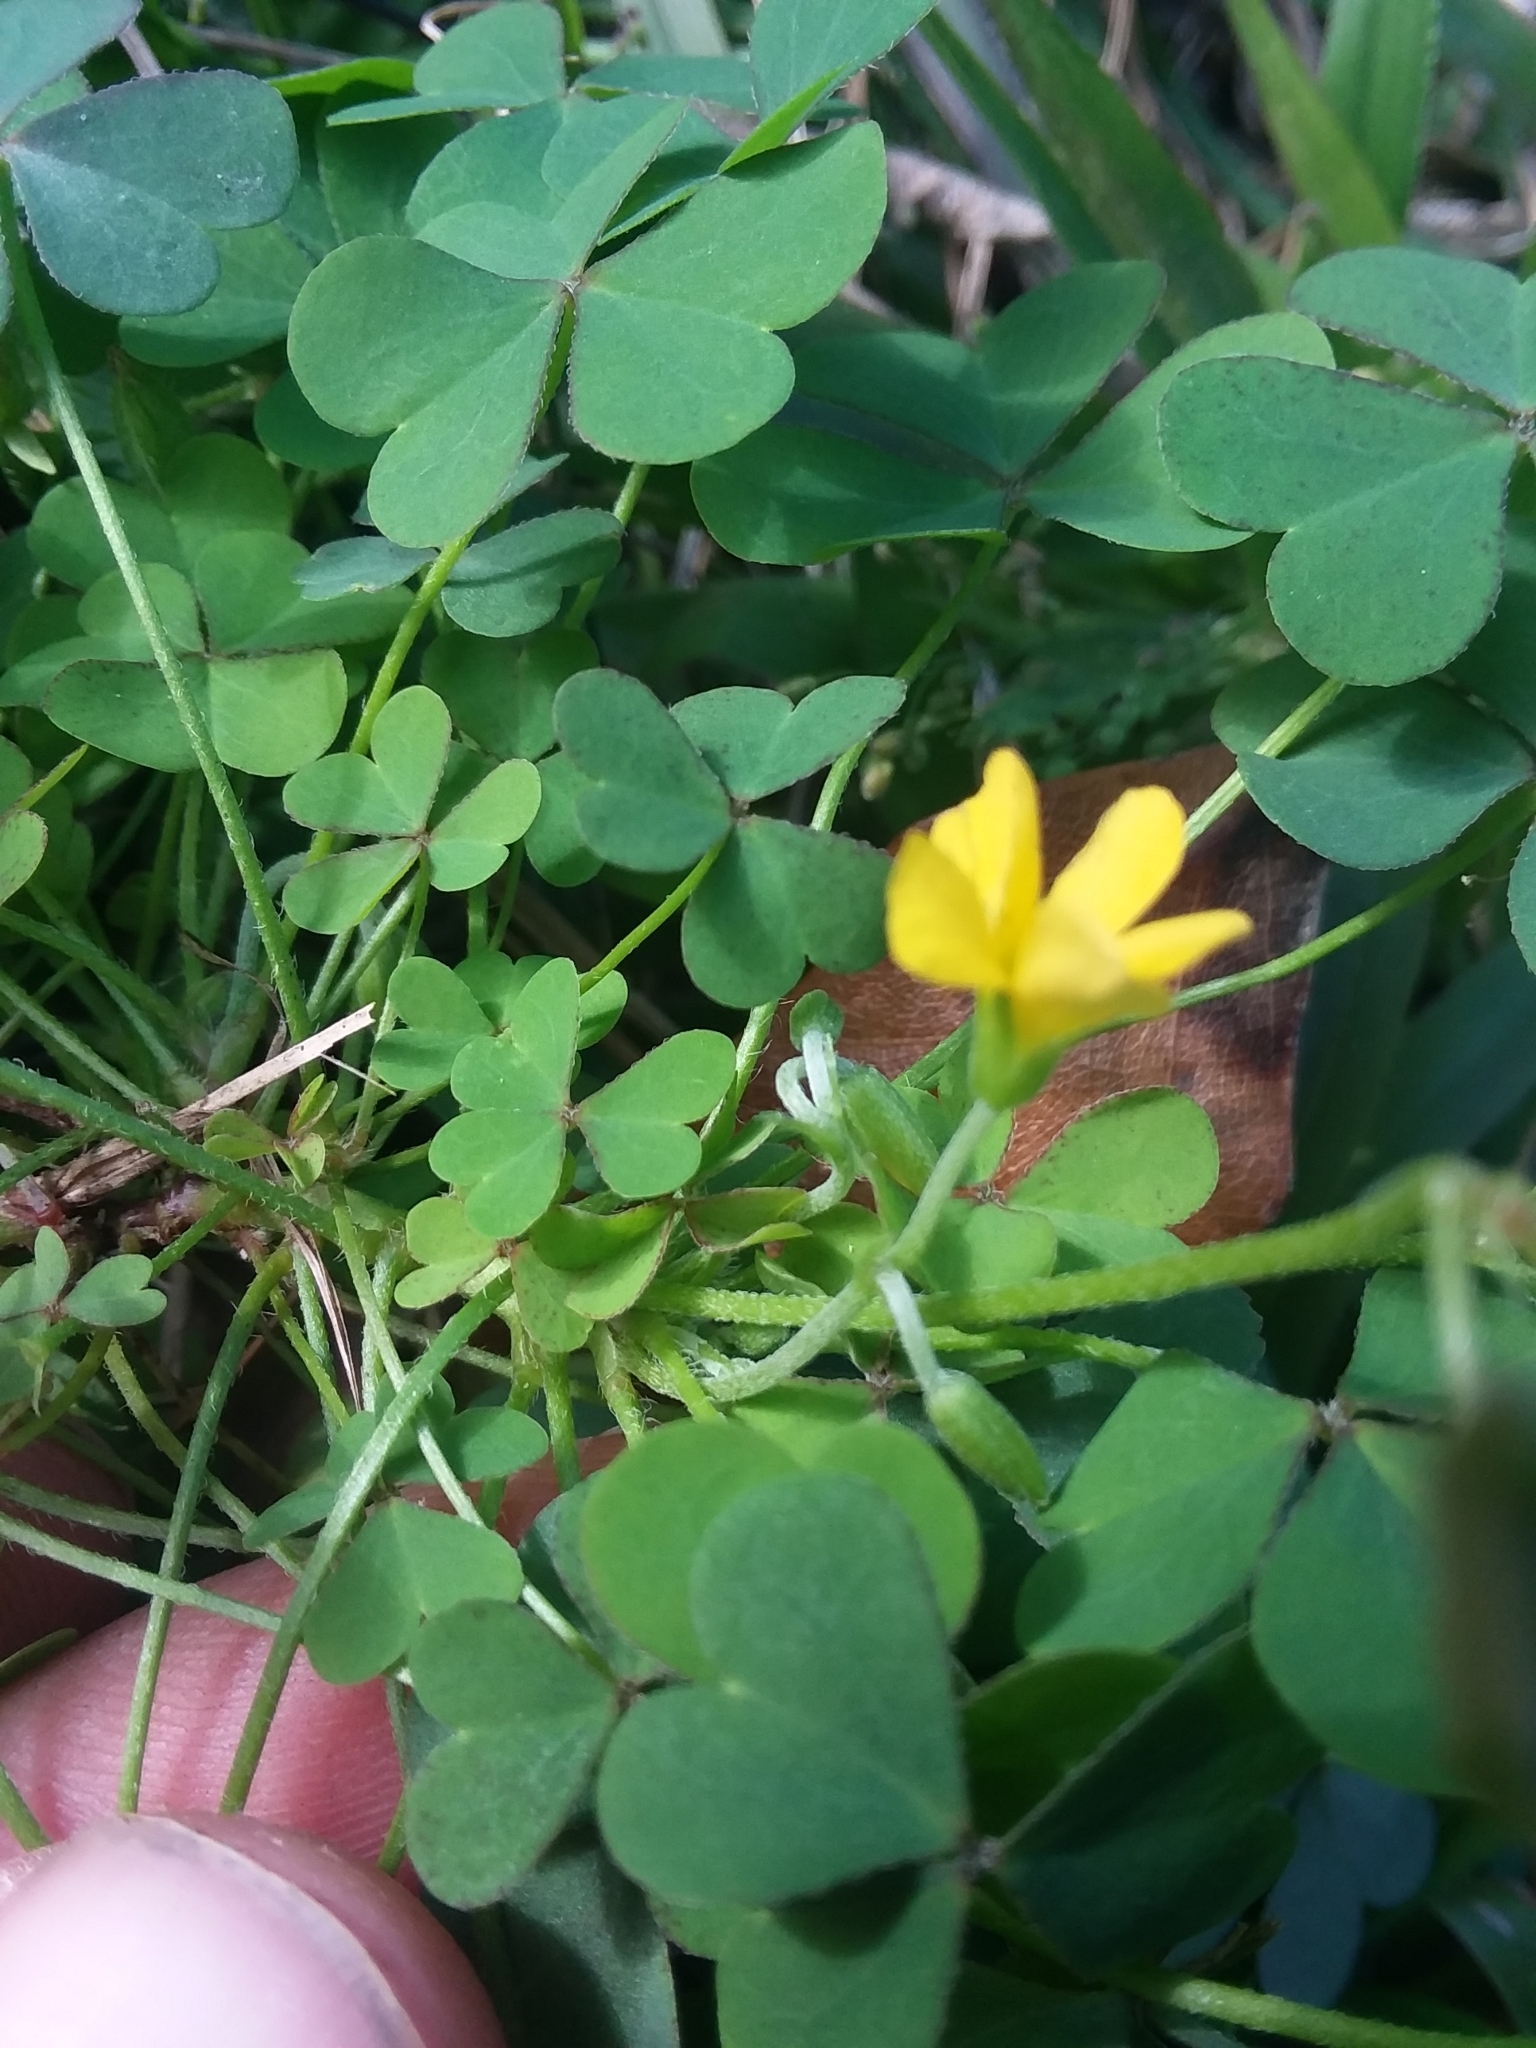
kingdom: Plantae
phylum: Tracheophyta
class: Magnoliopsida
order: Oxalidales
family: Oxalidaceae
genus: Oxalis
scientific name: Oxalis dillenii
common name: Sussex yellow-sorrel
